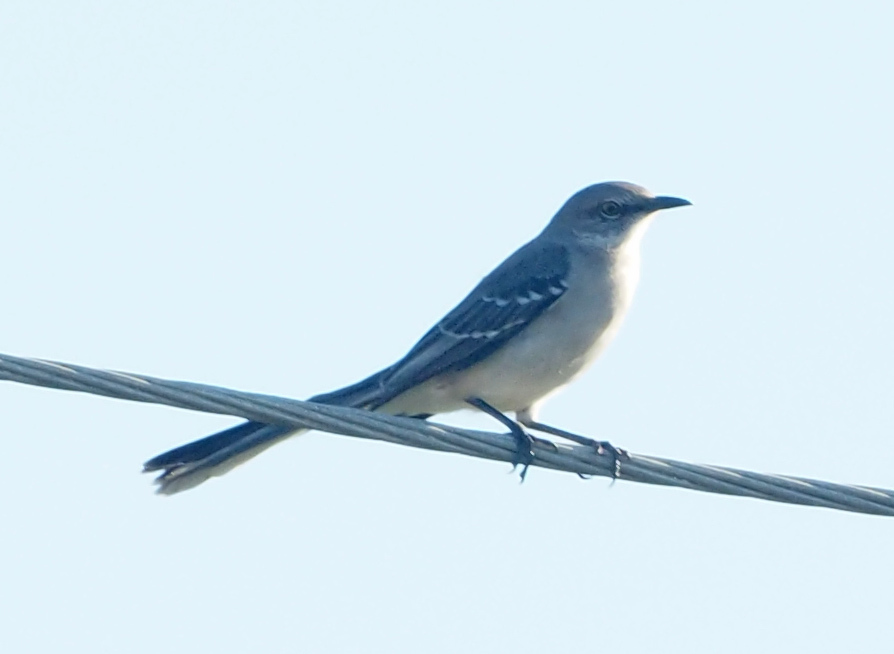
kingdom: Animalia
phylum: Chordata
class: Aves
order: Passeriformes
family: Mimidae
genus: Mimus
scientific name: Mimus polyglottos
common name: Northern mockingbird
